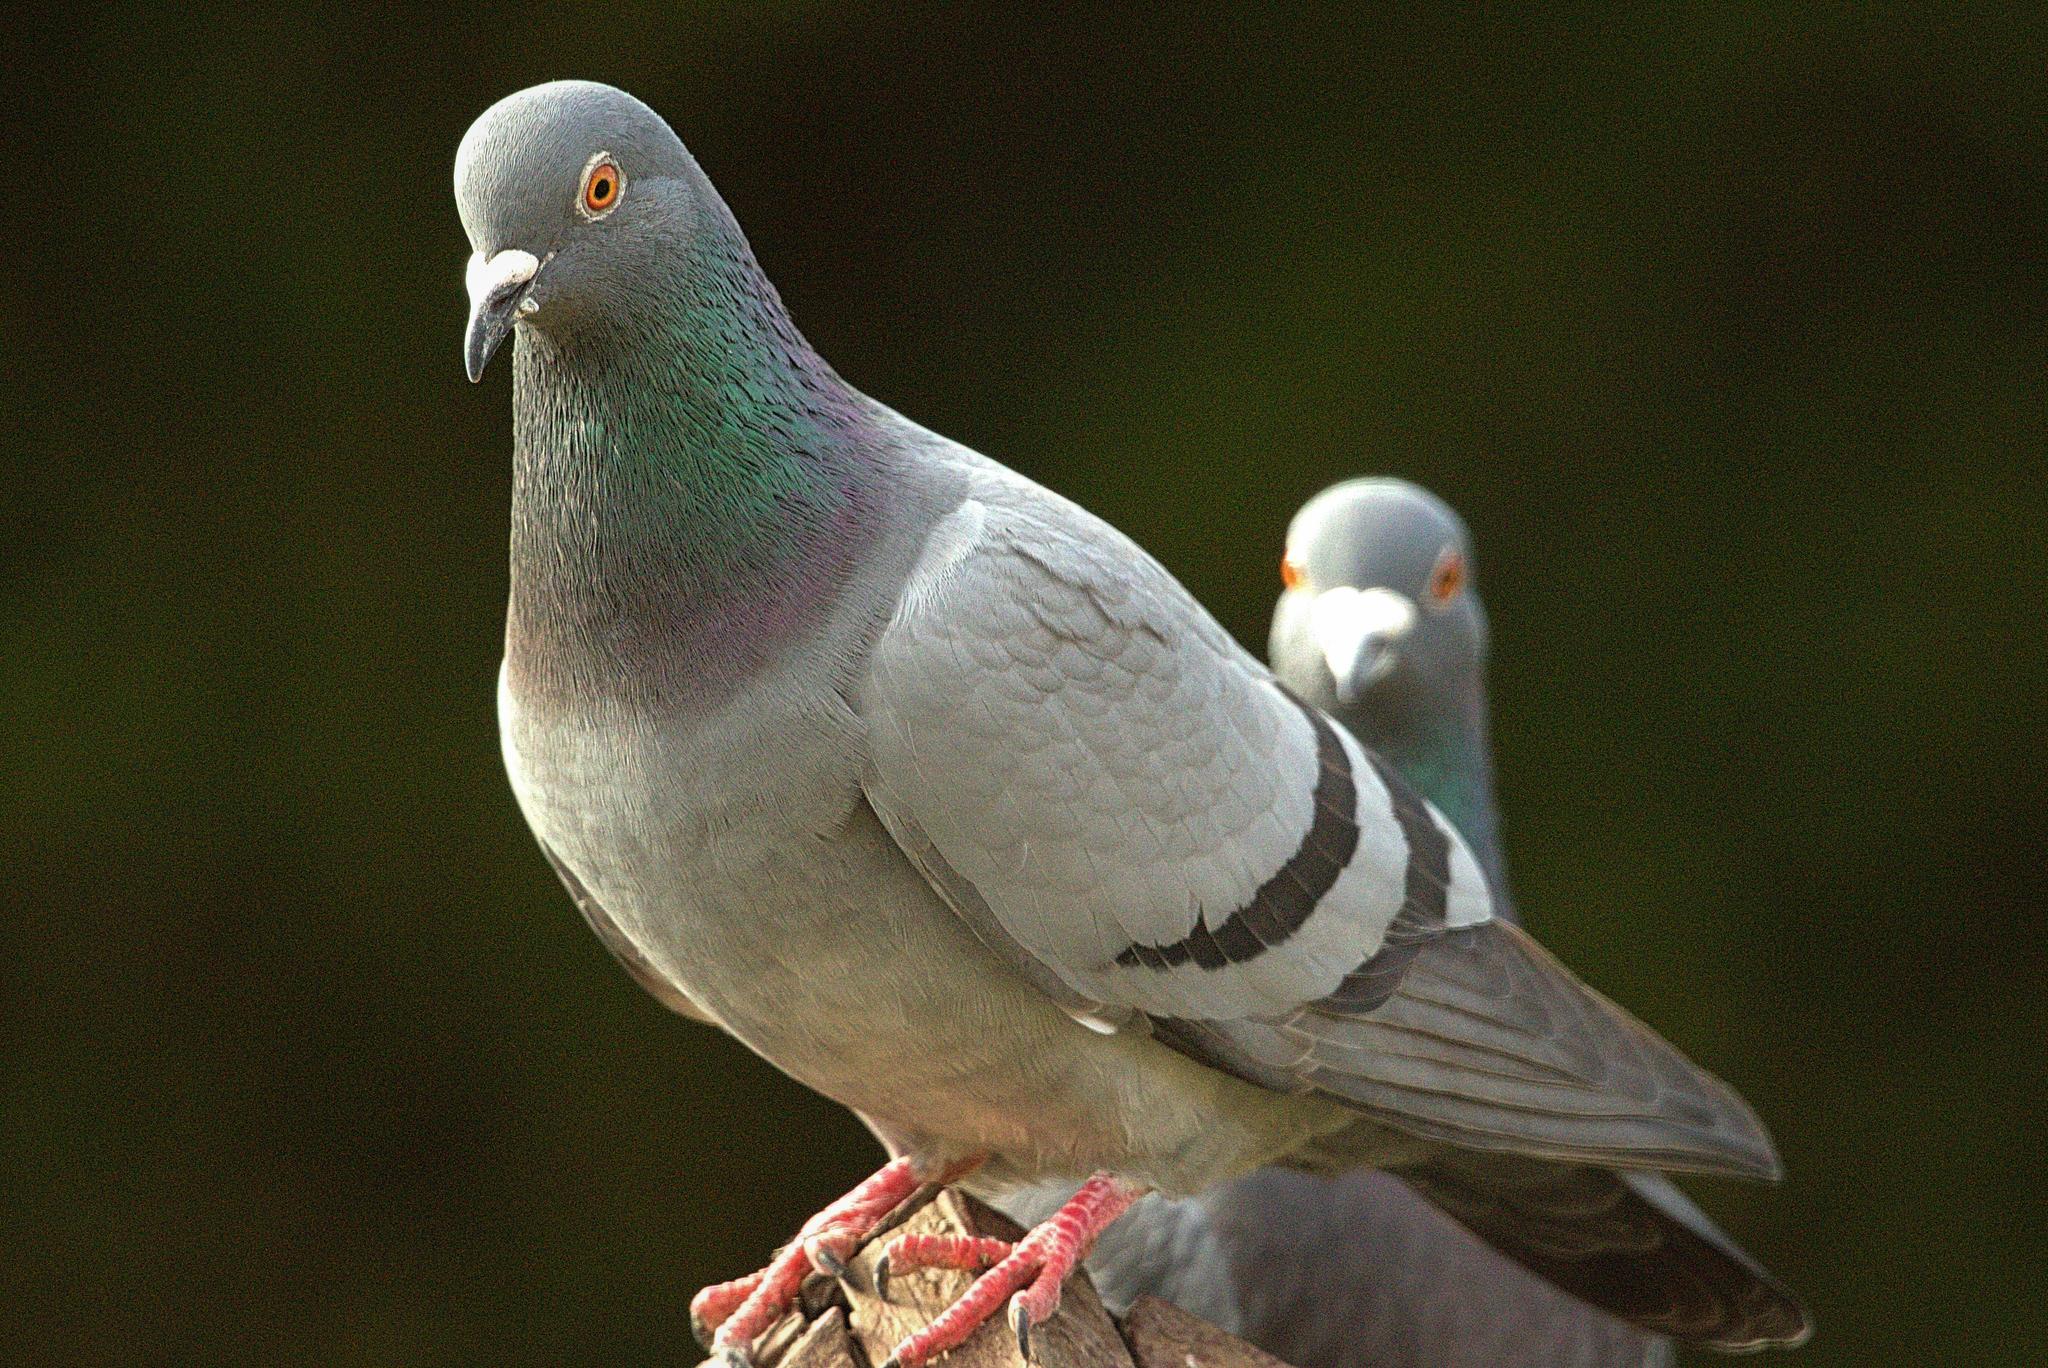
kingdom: Animalia
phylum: Chordata
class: Aves
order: Columbiformes
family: Columbidae
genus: Columba
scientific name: Columba livia
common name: Rock pigeon
